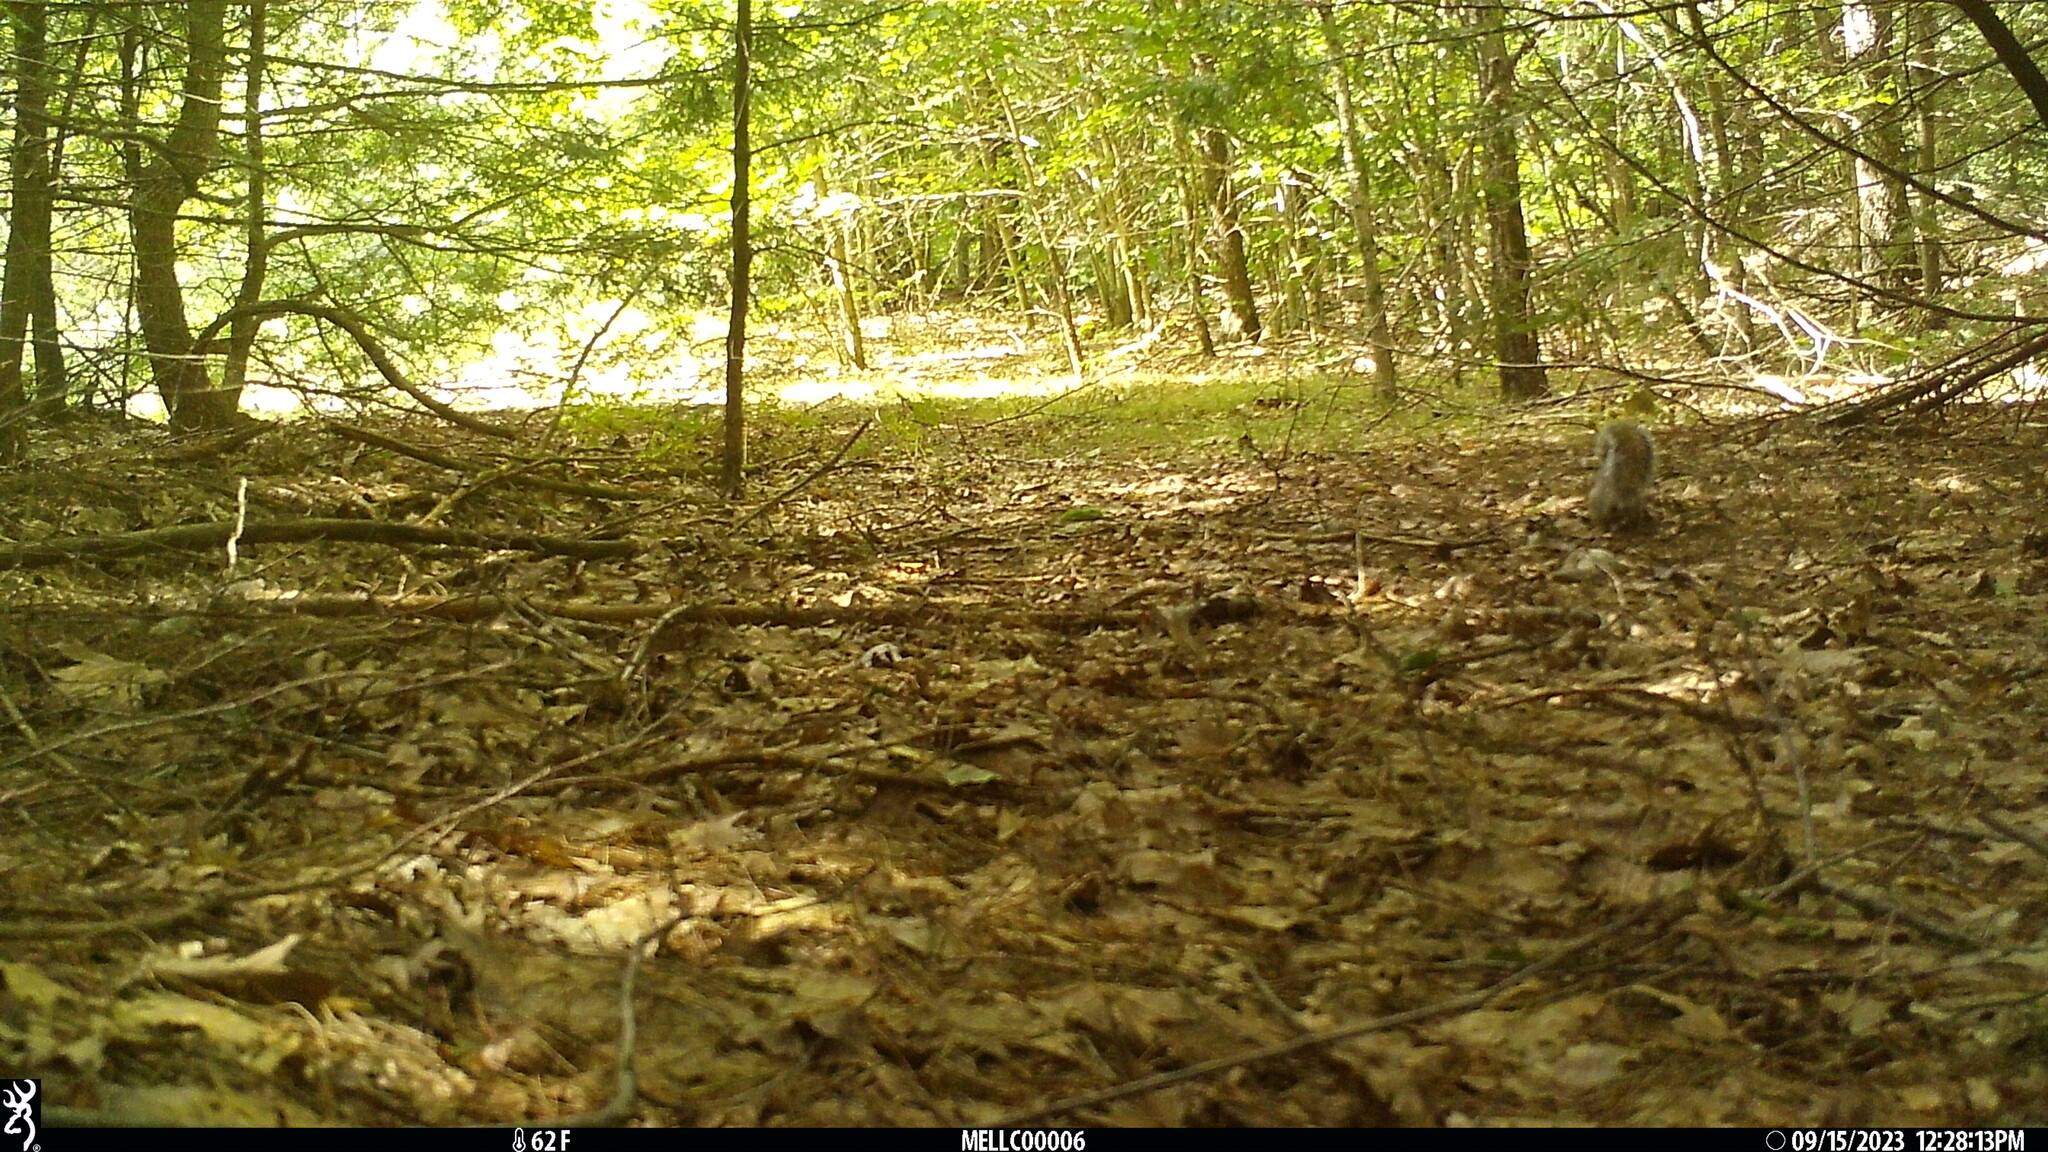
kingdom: Animalia
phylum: Chordata
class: Mammalia
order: Rodentia
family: Sciuridae
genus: Sciurus
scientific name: Sciurus carolinensis
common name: Eastern gray squirrel
